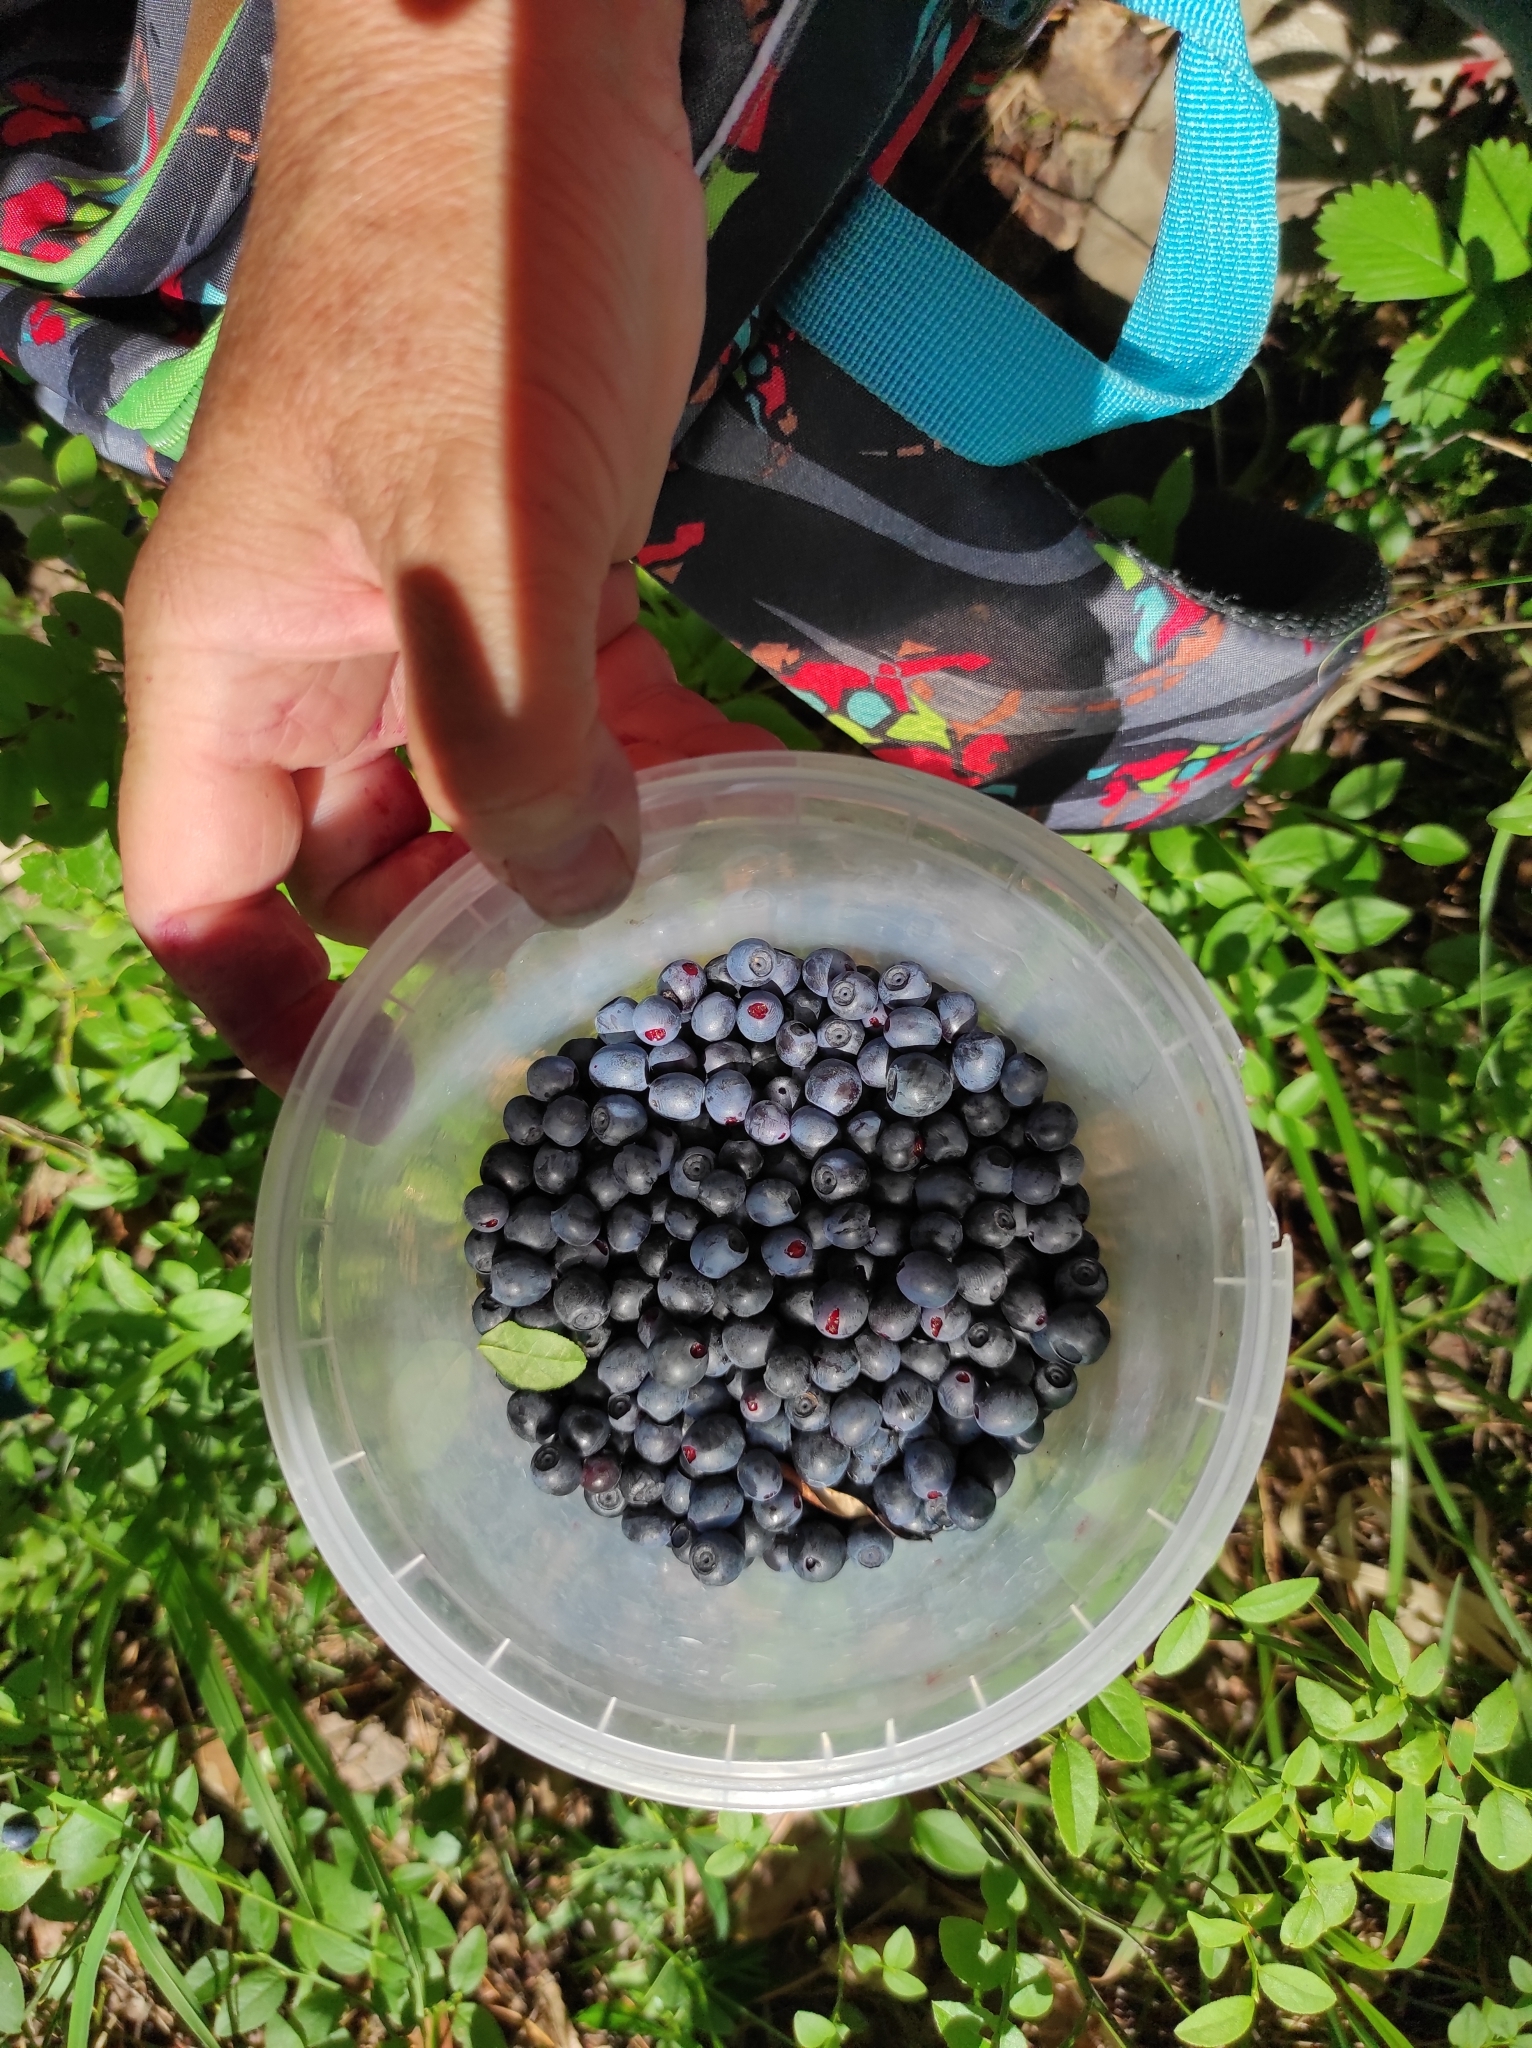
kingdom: Plantae
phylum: Tracheophyta
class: Magnoliopsida
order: Ericales
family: Ericaceae
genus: Vaccinium
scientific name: Vaccinium myrtillus
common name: Bilberry
